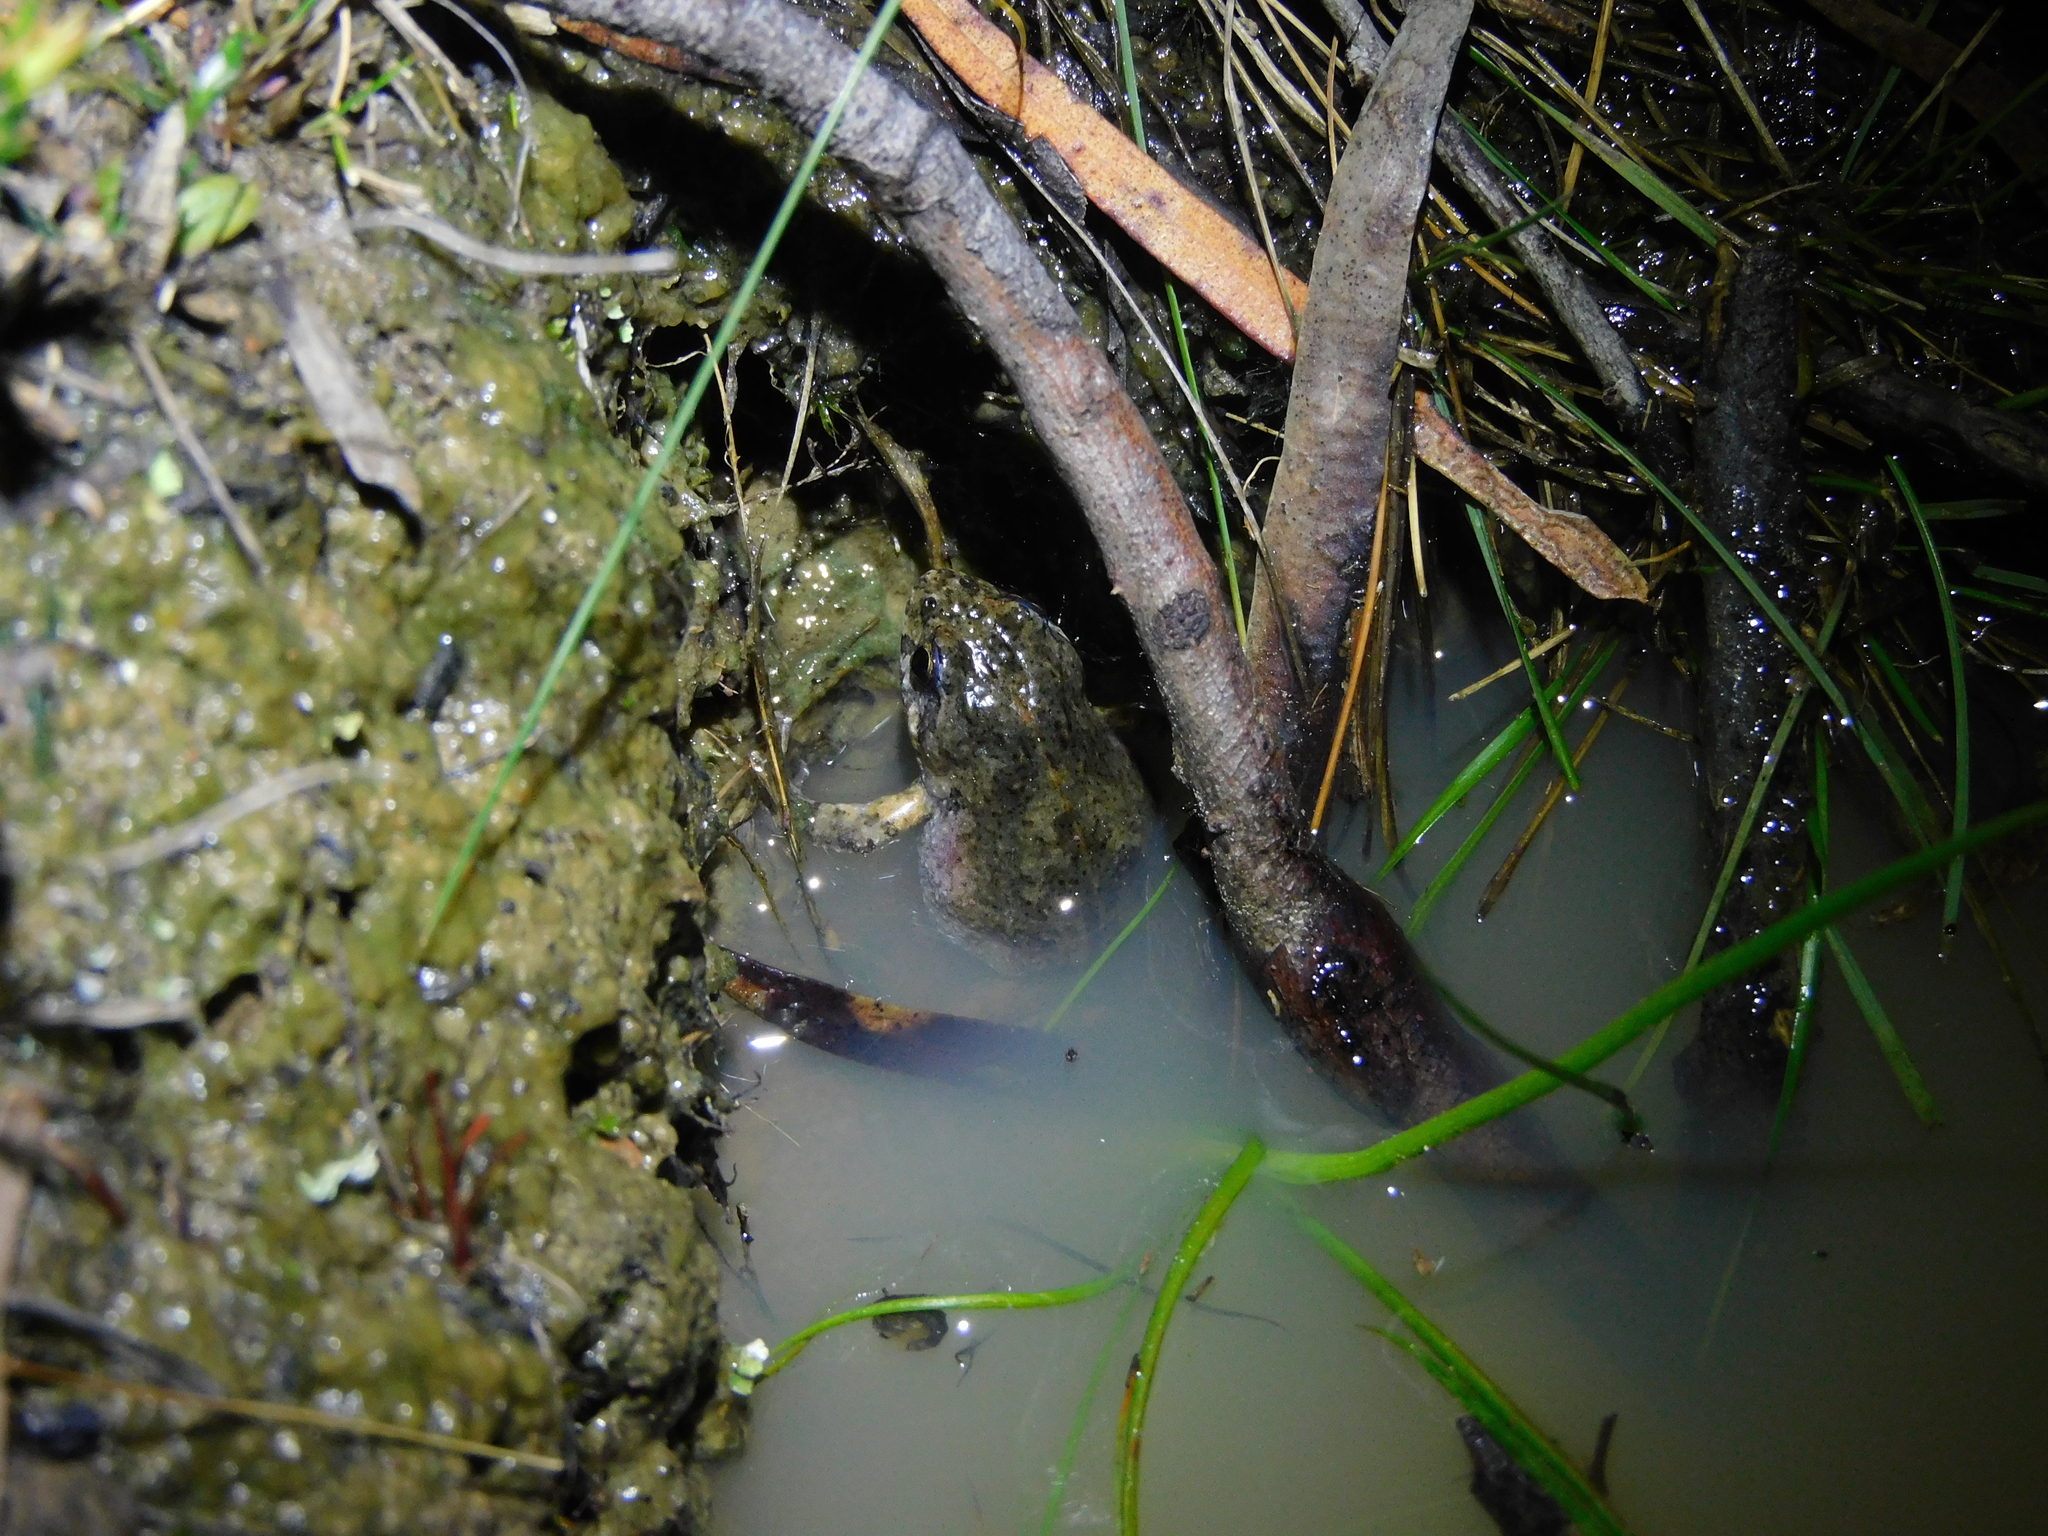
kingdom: Animalia
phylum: Chordata
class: Amphibia
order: Anura
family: Myobatrachidae
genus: Crinia
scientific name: Crinia signifera
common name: Brown froglet
